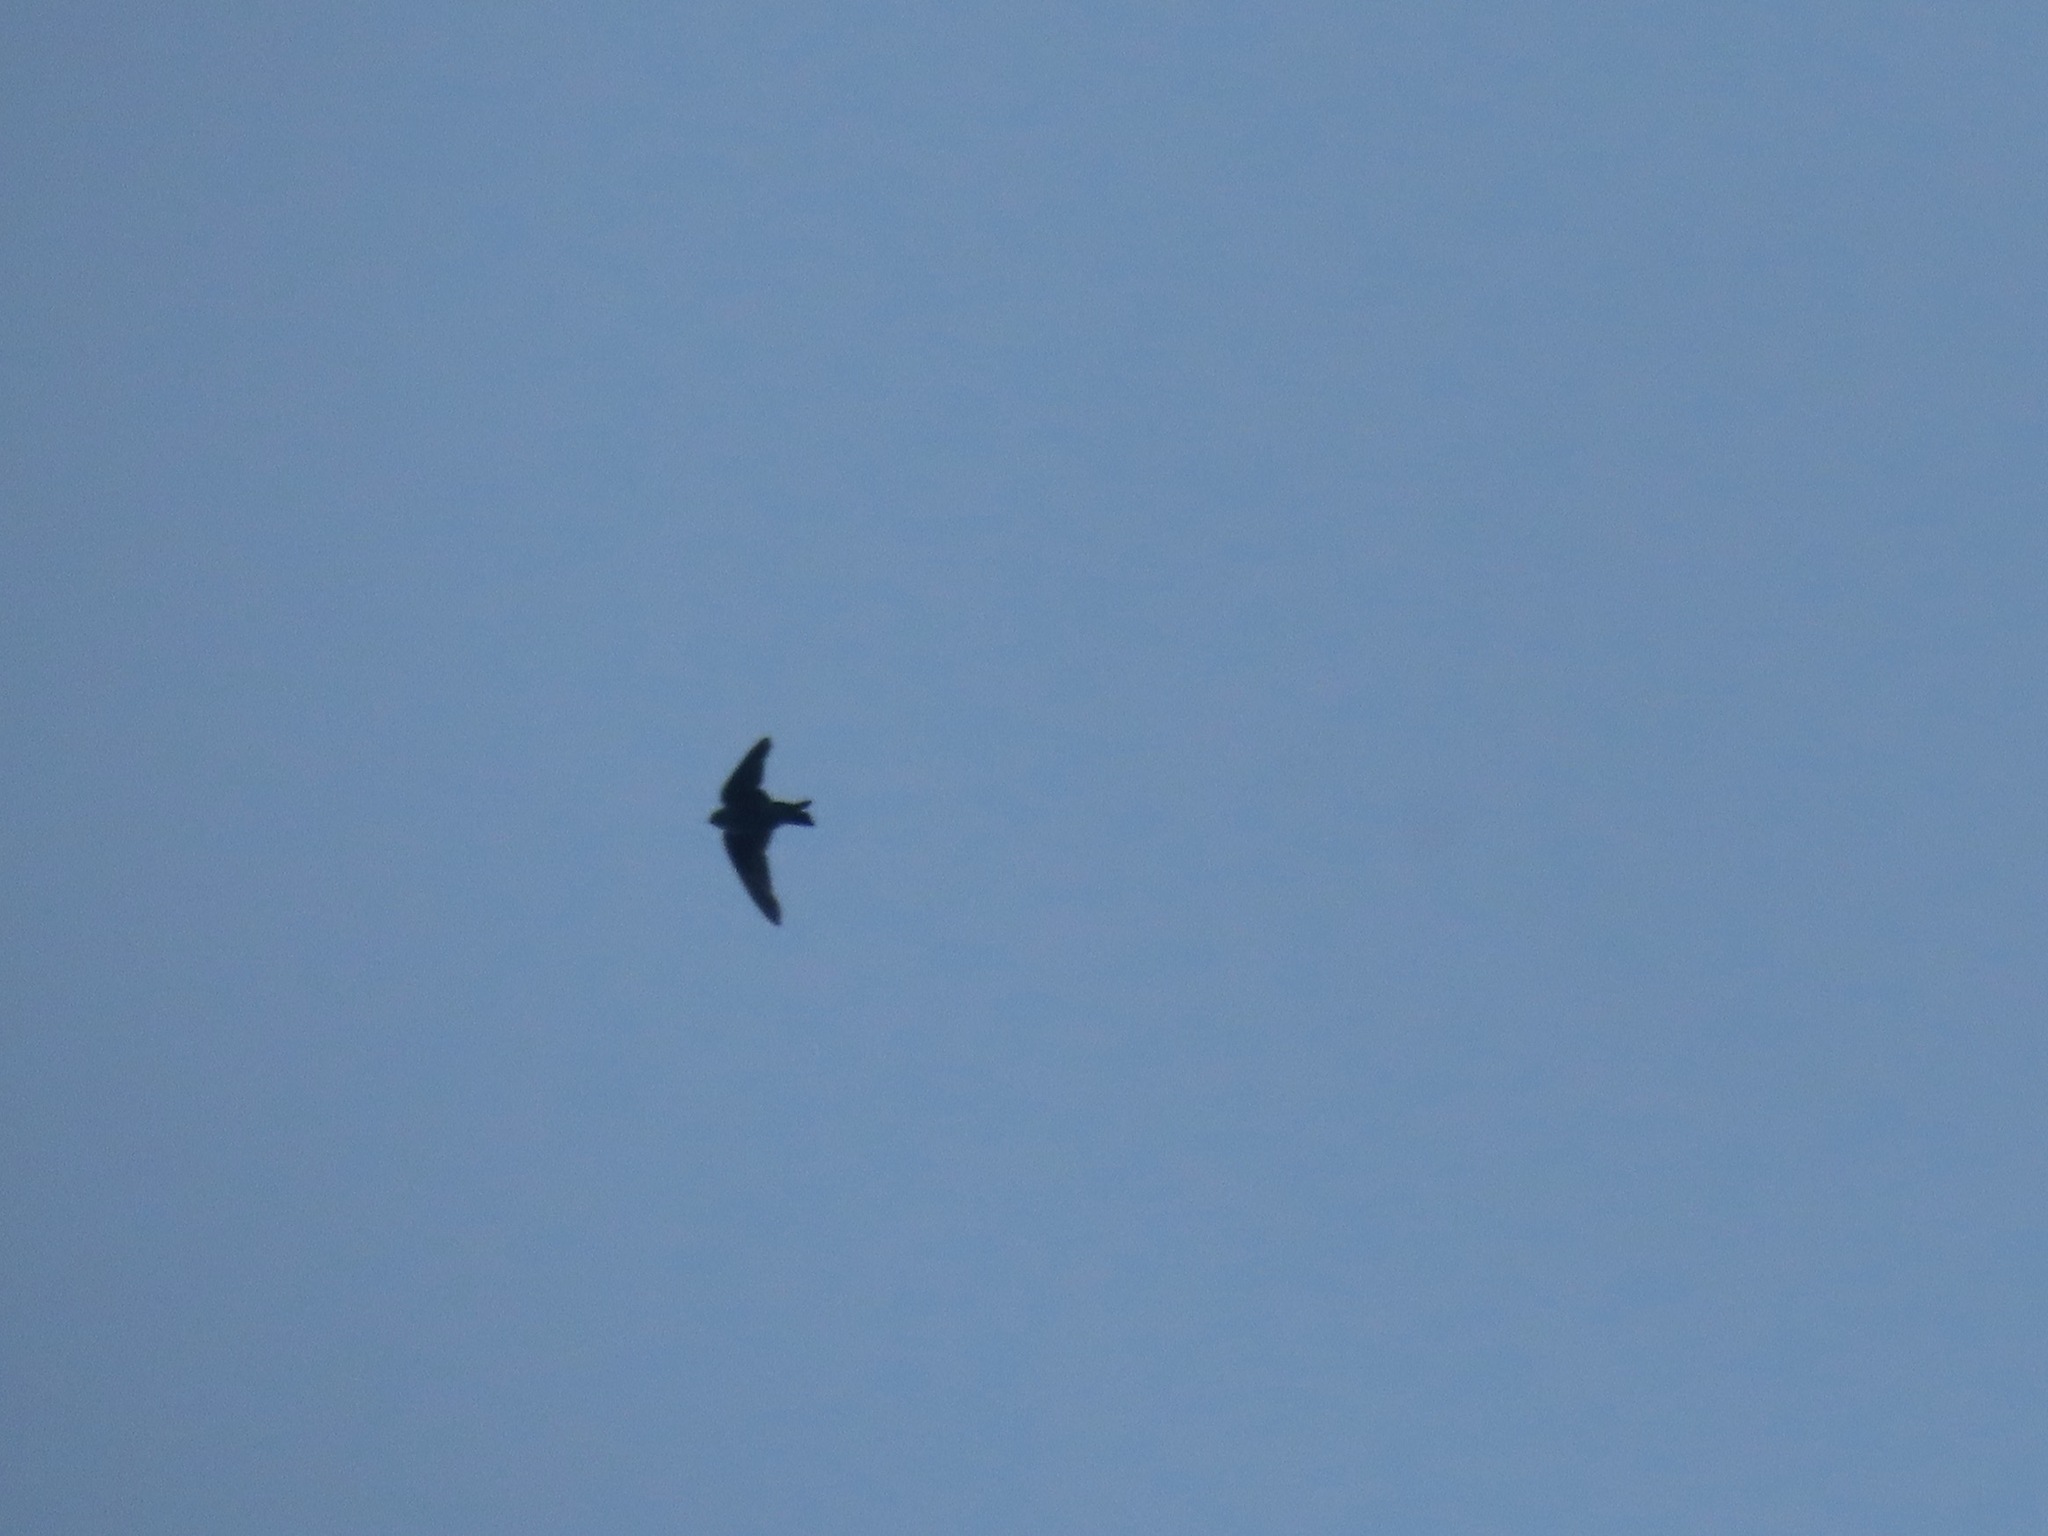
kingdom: Animalia
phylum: Chordata
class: Aves
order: Apodiformes
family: Apodidae
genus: Chaetura
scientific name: Chaetura vauxi
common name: Vaux's swift
